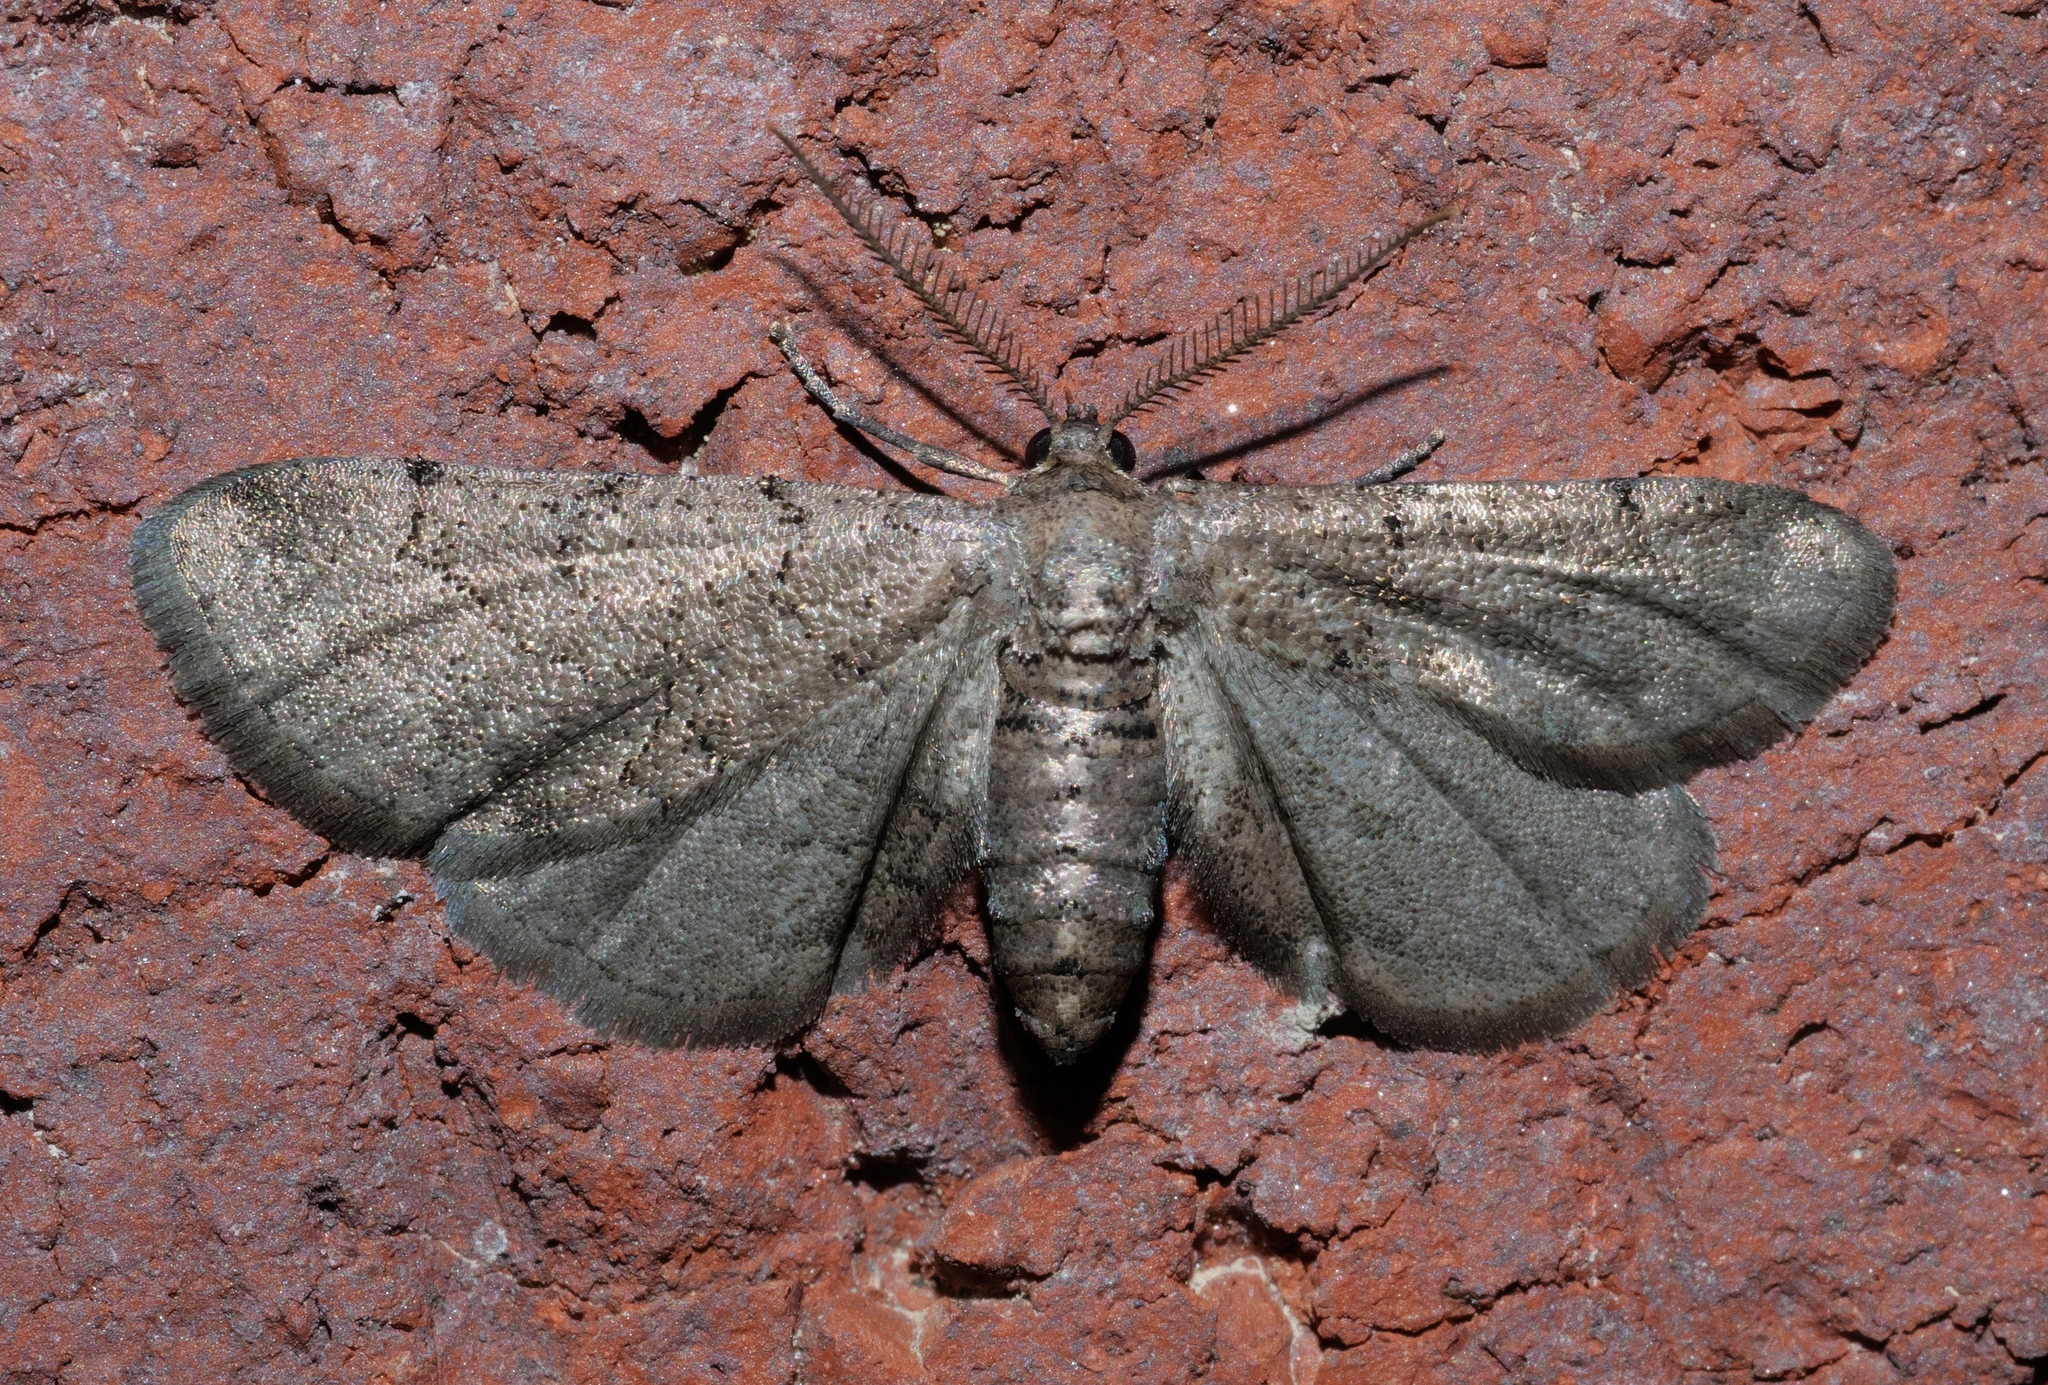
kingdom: Animalia
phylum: Arthropoda
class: Insecta
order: Lepidoptera
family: Geometridae
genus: Exelis
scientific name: Exelis pyrolaria
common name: Fine lined gray
